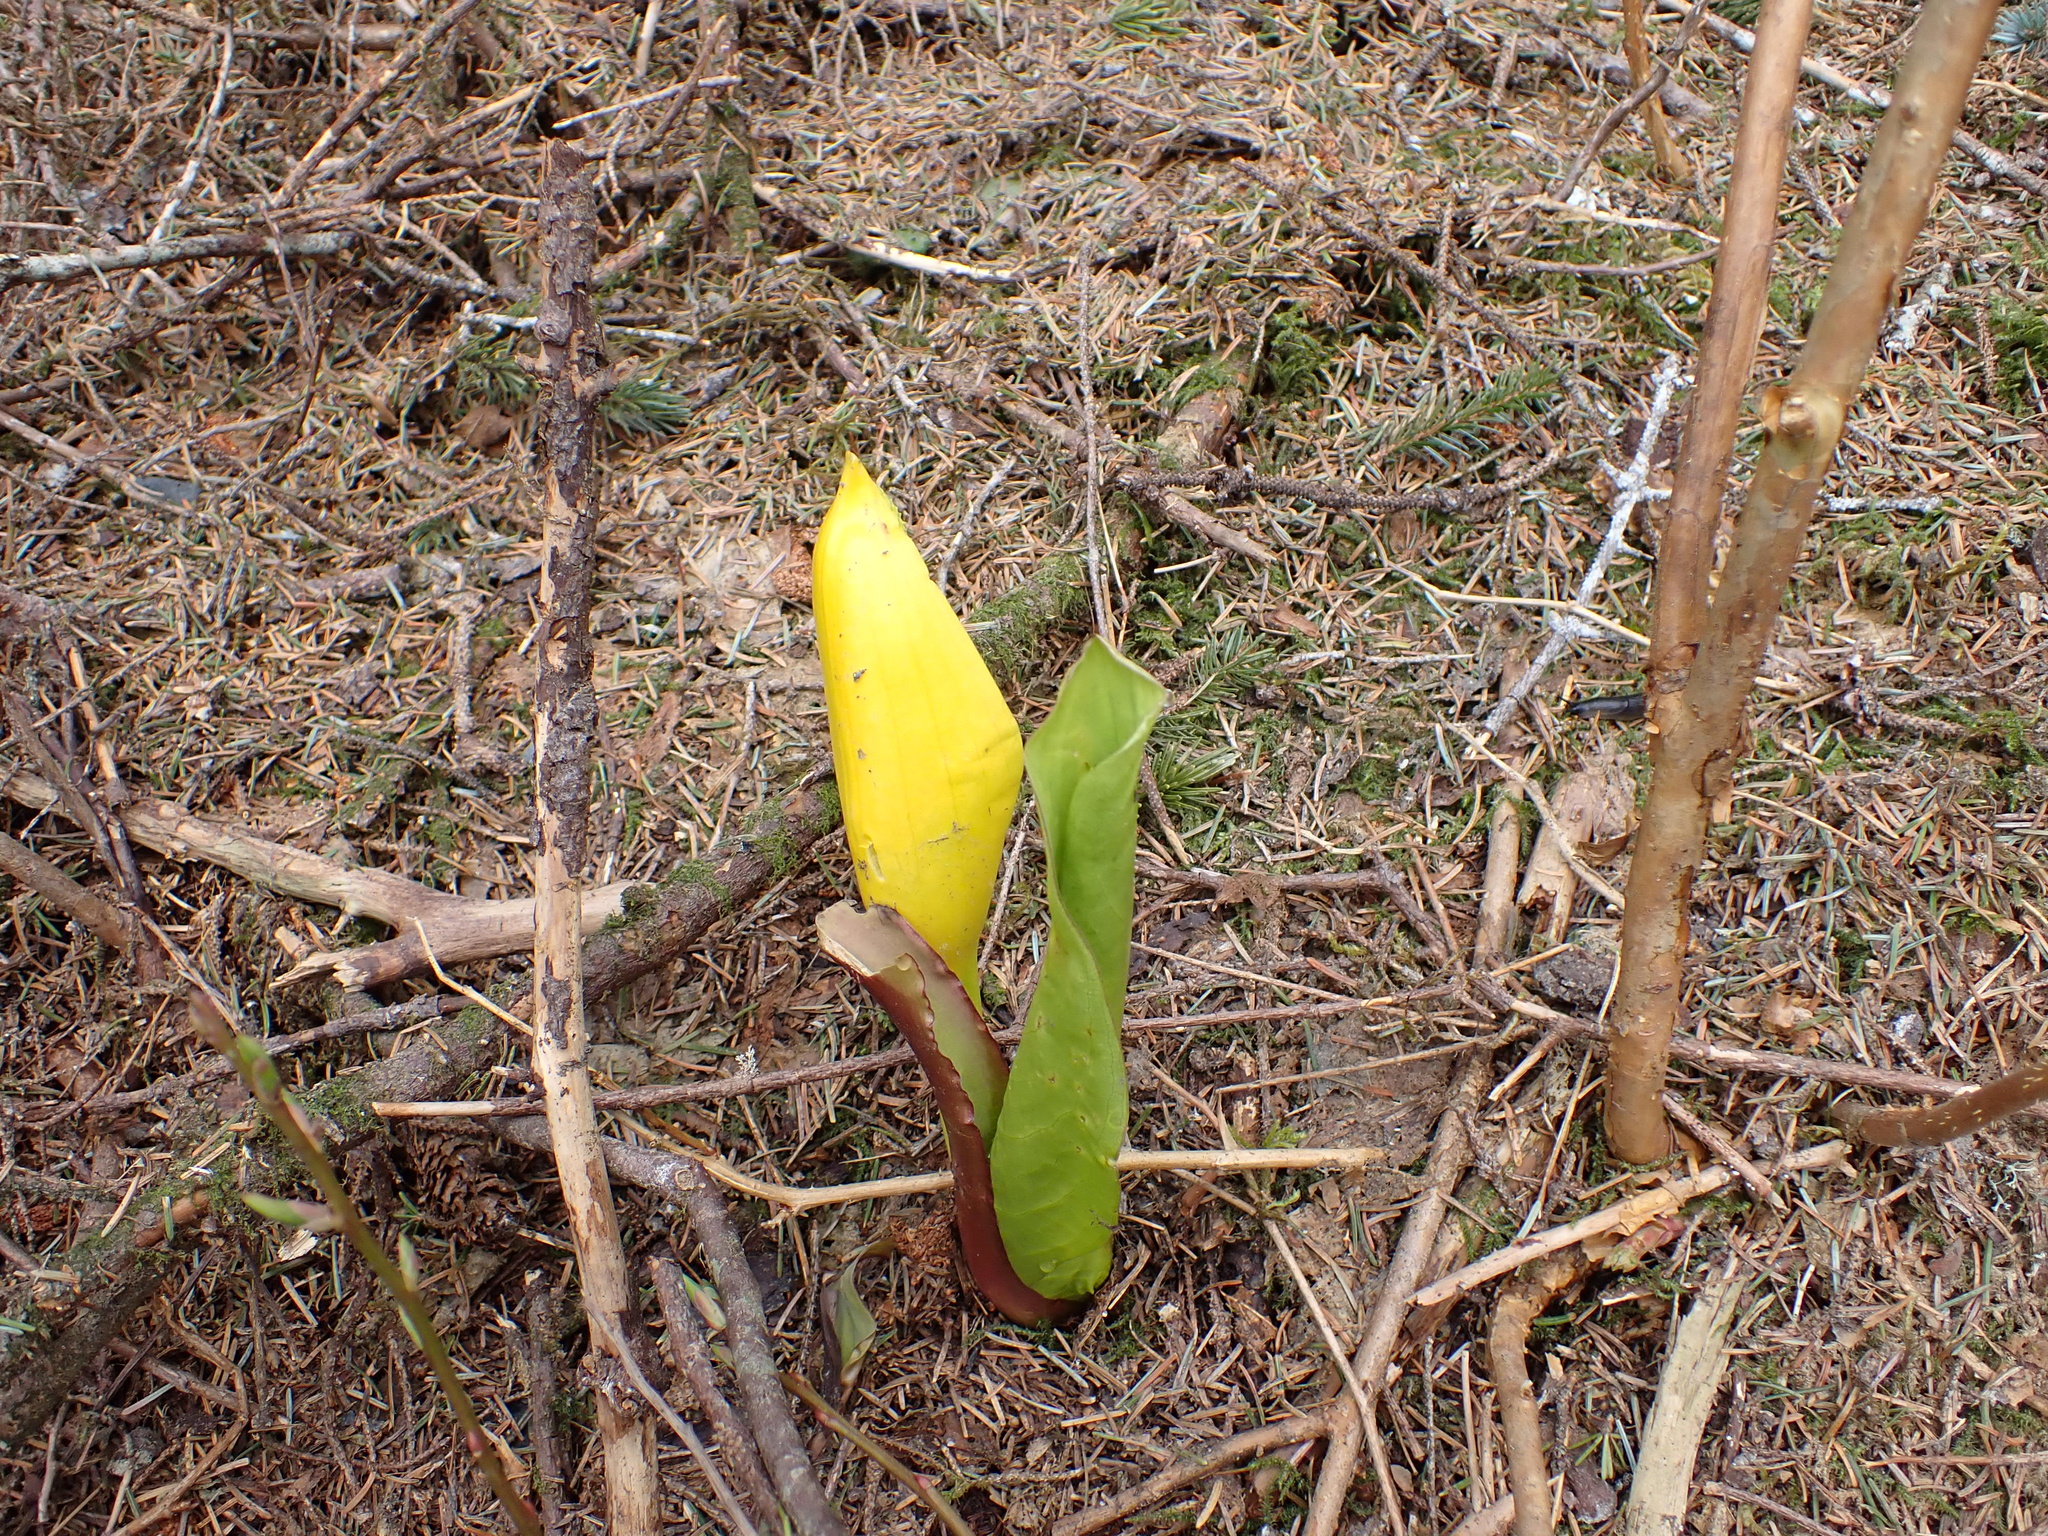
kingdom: Plantae
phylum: Tracheophyta
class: Liliopsida
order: Alismatales
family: Araceae
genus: Lysichiton
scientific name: Lysichiton americanus
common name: American skunk cabbage
